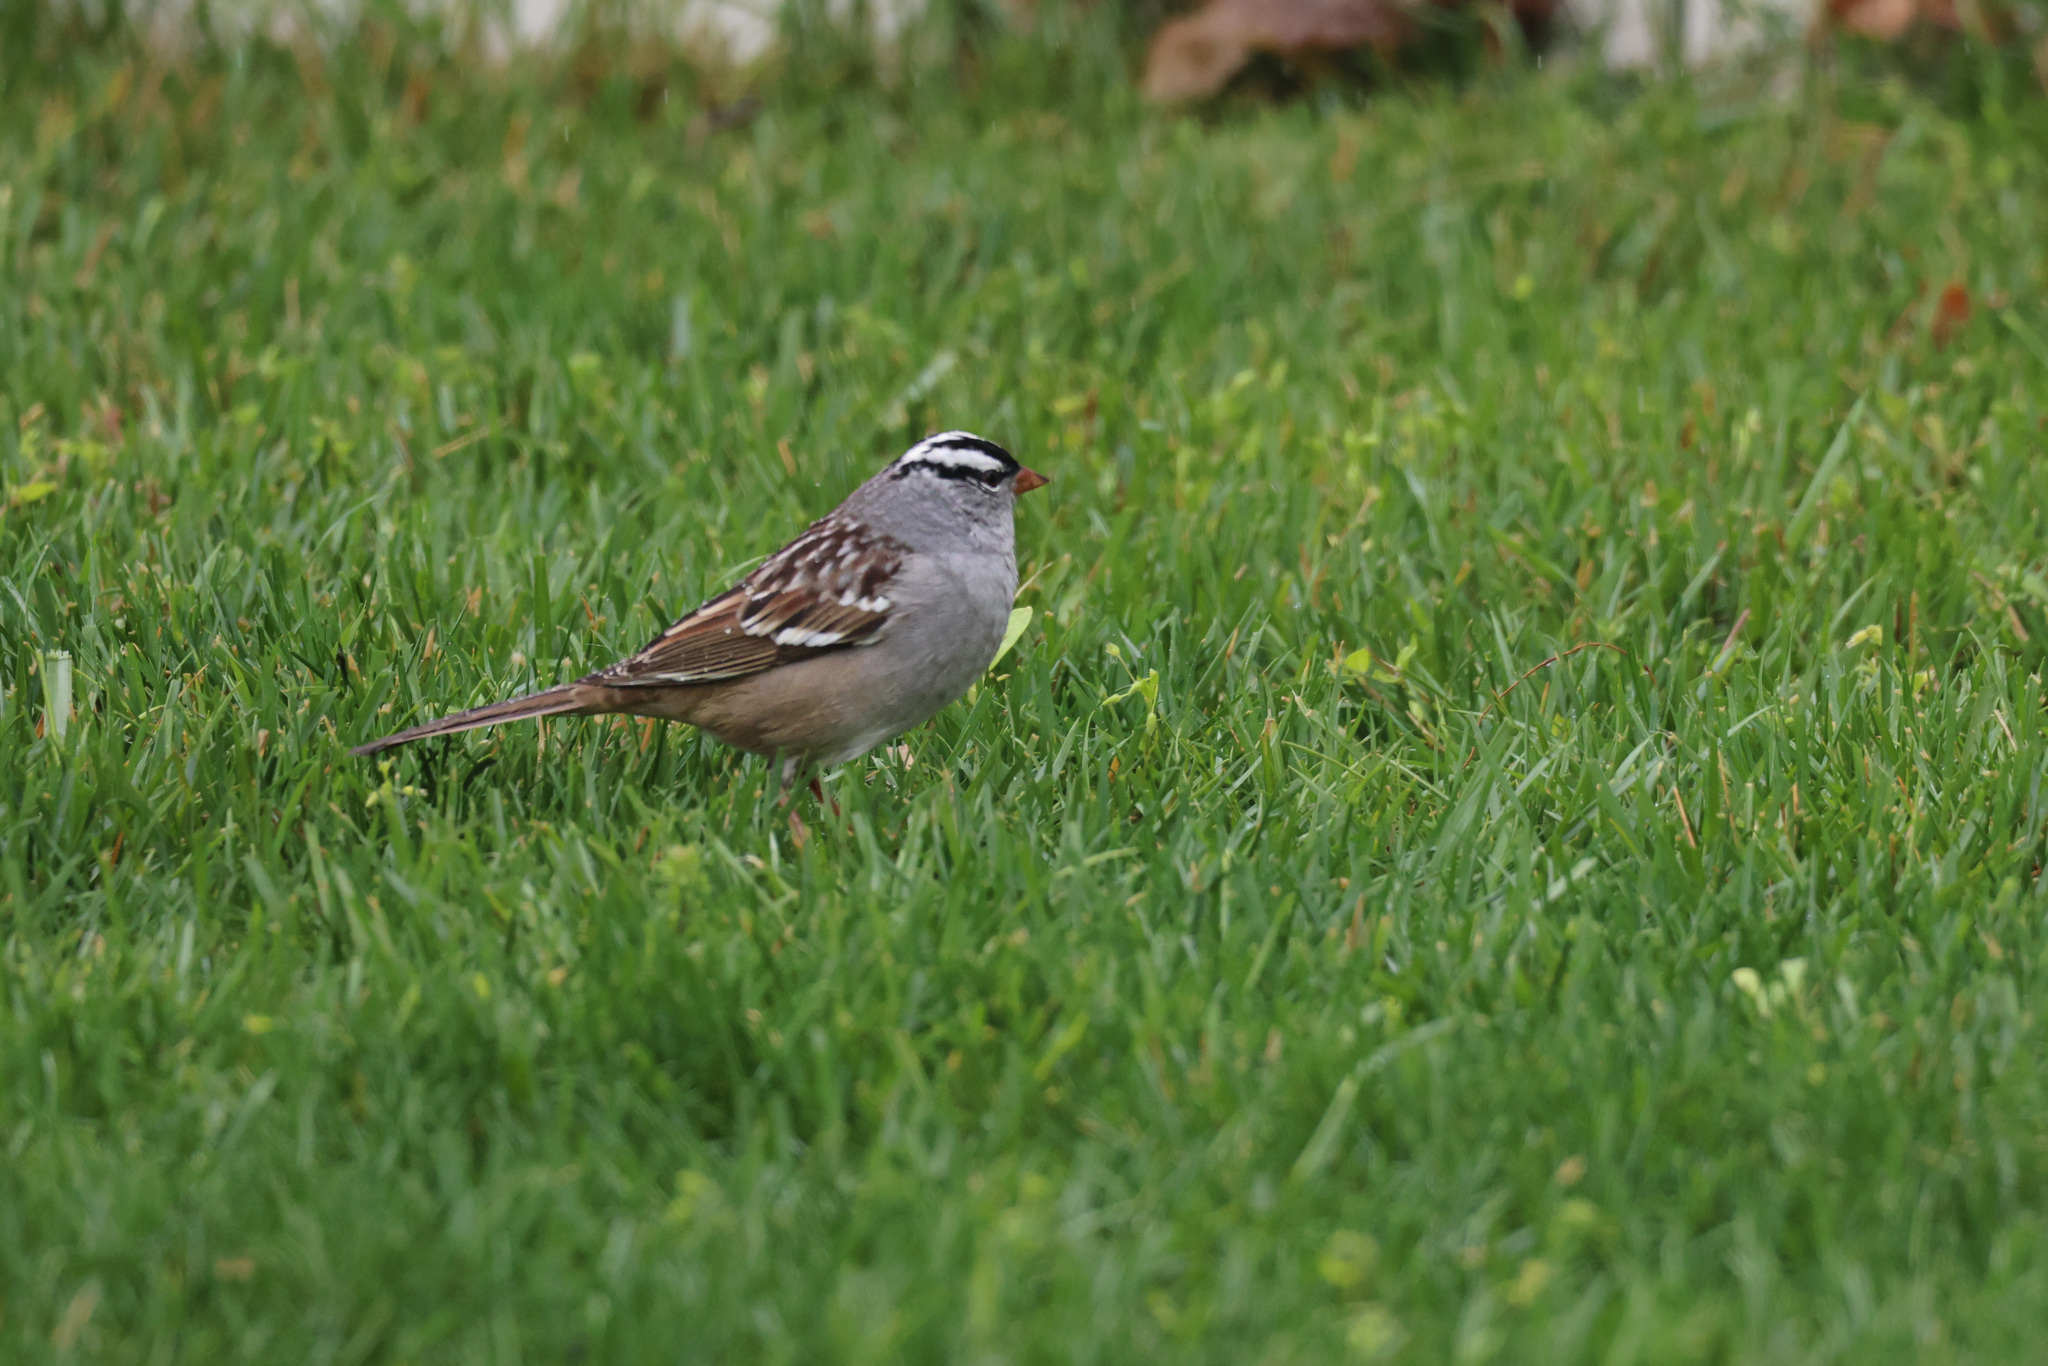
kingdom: Animalia
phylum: Chordata
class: Aves
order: Passeriformes
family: Passerellidae
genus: Zonotrichia
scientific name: Zonotrichia leucophrys
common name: White-crowned sparrow
